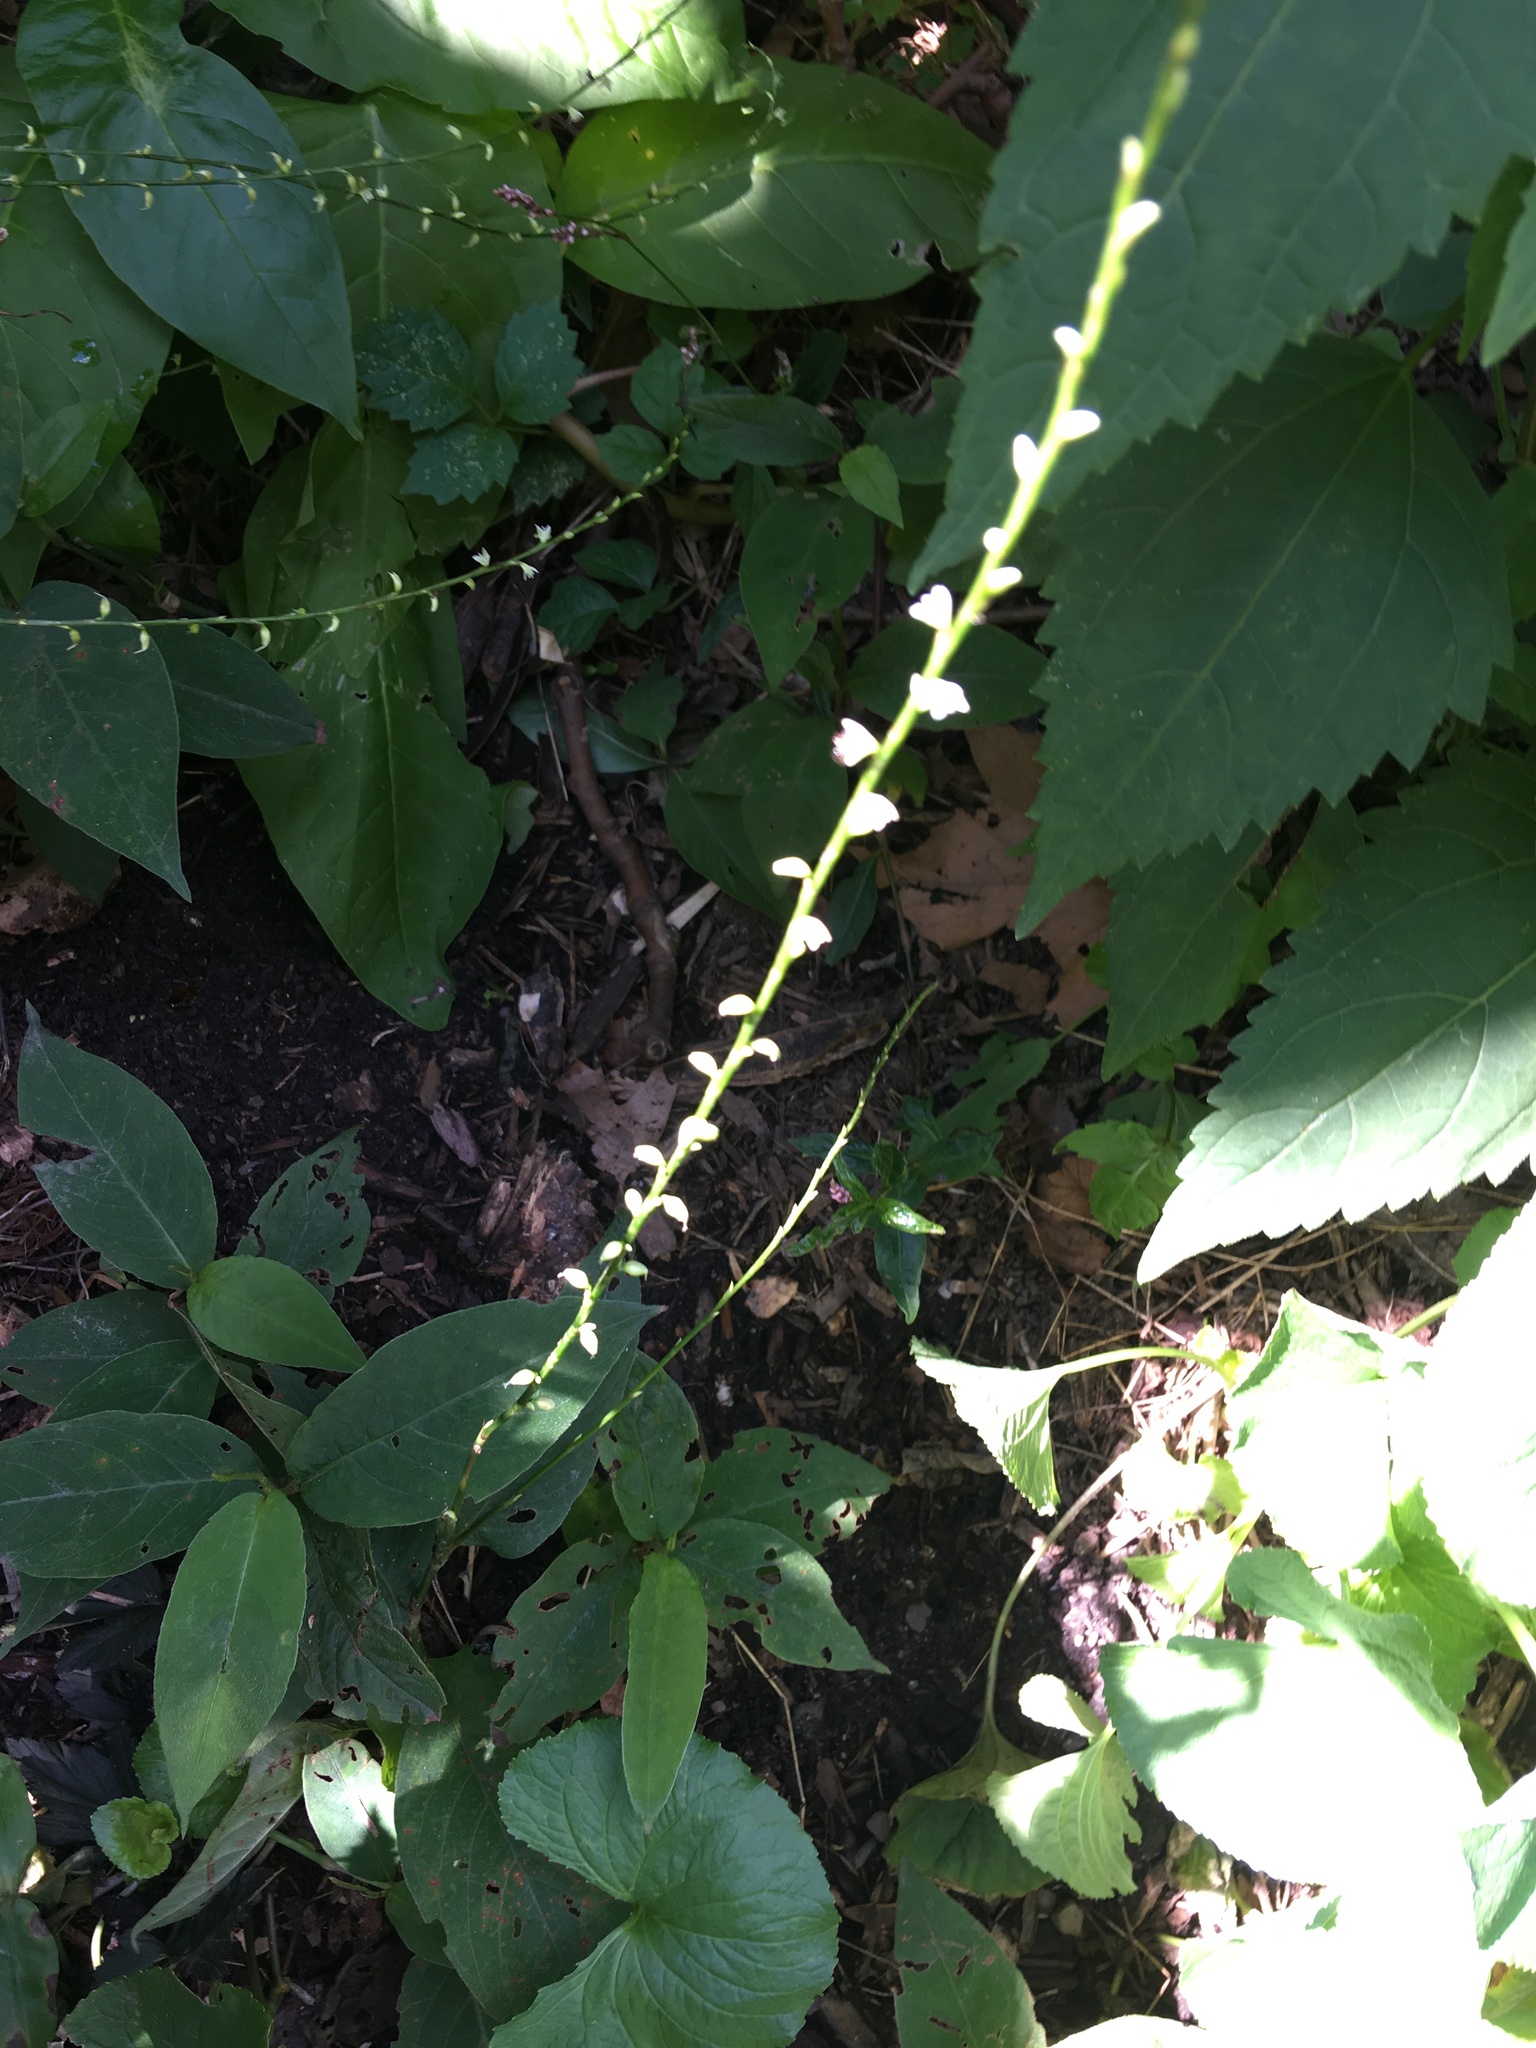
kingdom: Plantae
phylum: Tracheophyta
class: Magnoliopsida
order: Caryophyllales
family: Polygonaceae
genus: Persicaria
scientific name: Persicaria virginiana
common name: Jumpseed
